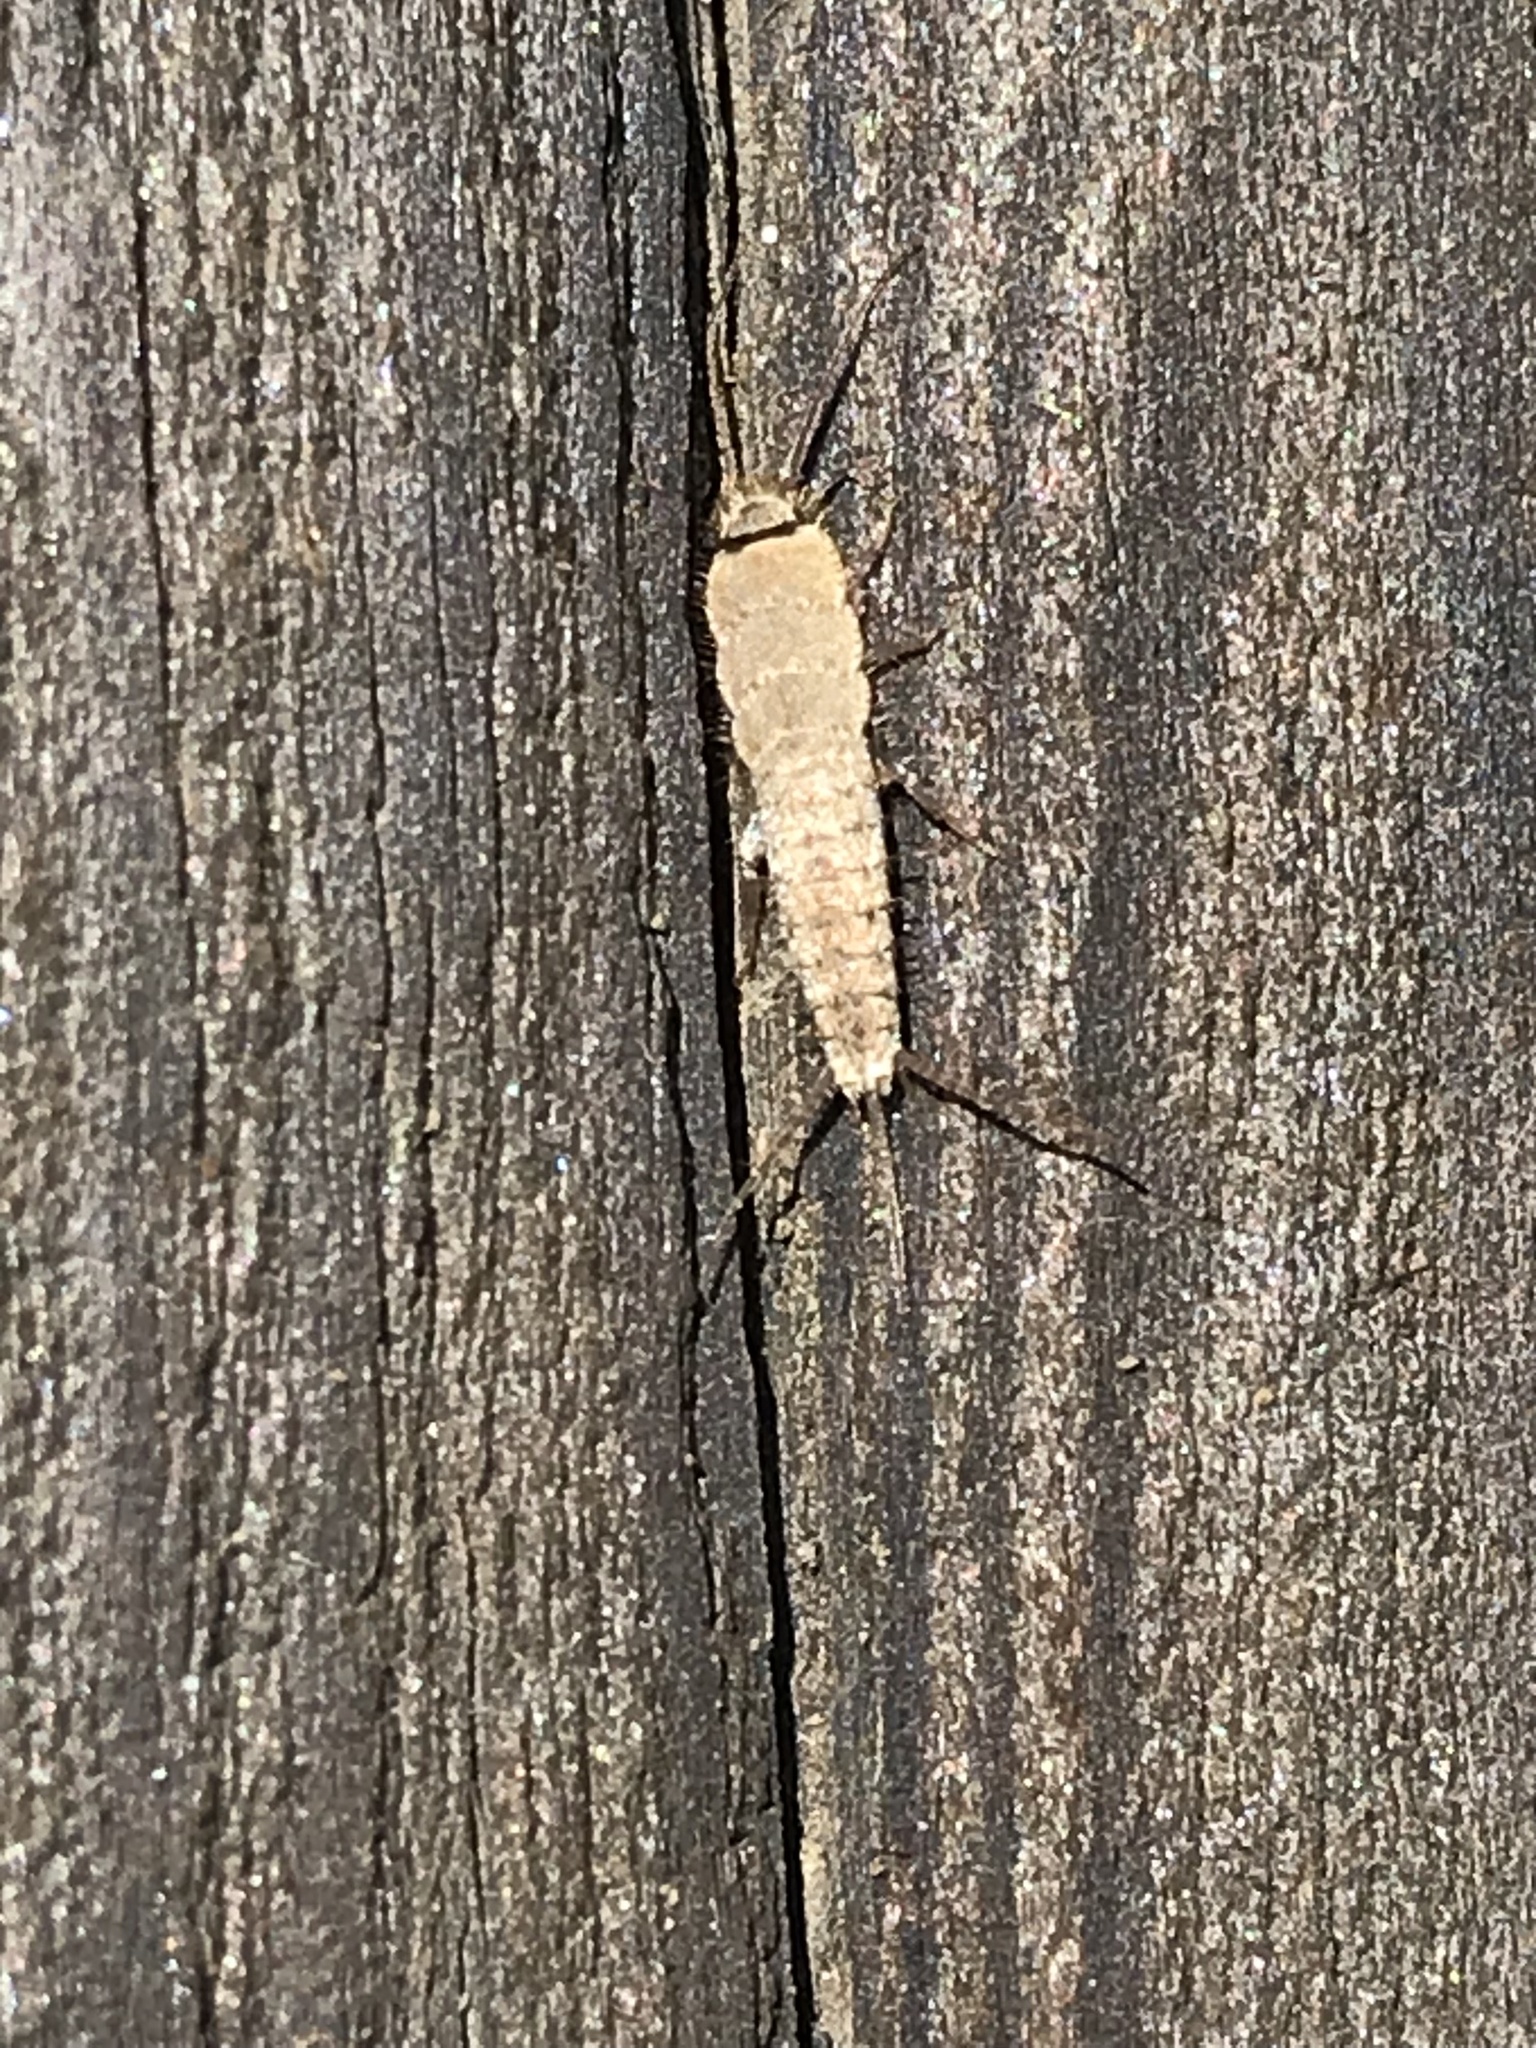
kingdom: Animalia
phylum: Arthropoda
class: Insecta
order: Zygentoma
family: Lepismatidae
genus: Ctenolepisma
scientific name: Ctenolepisma ciliata
